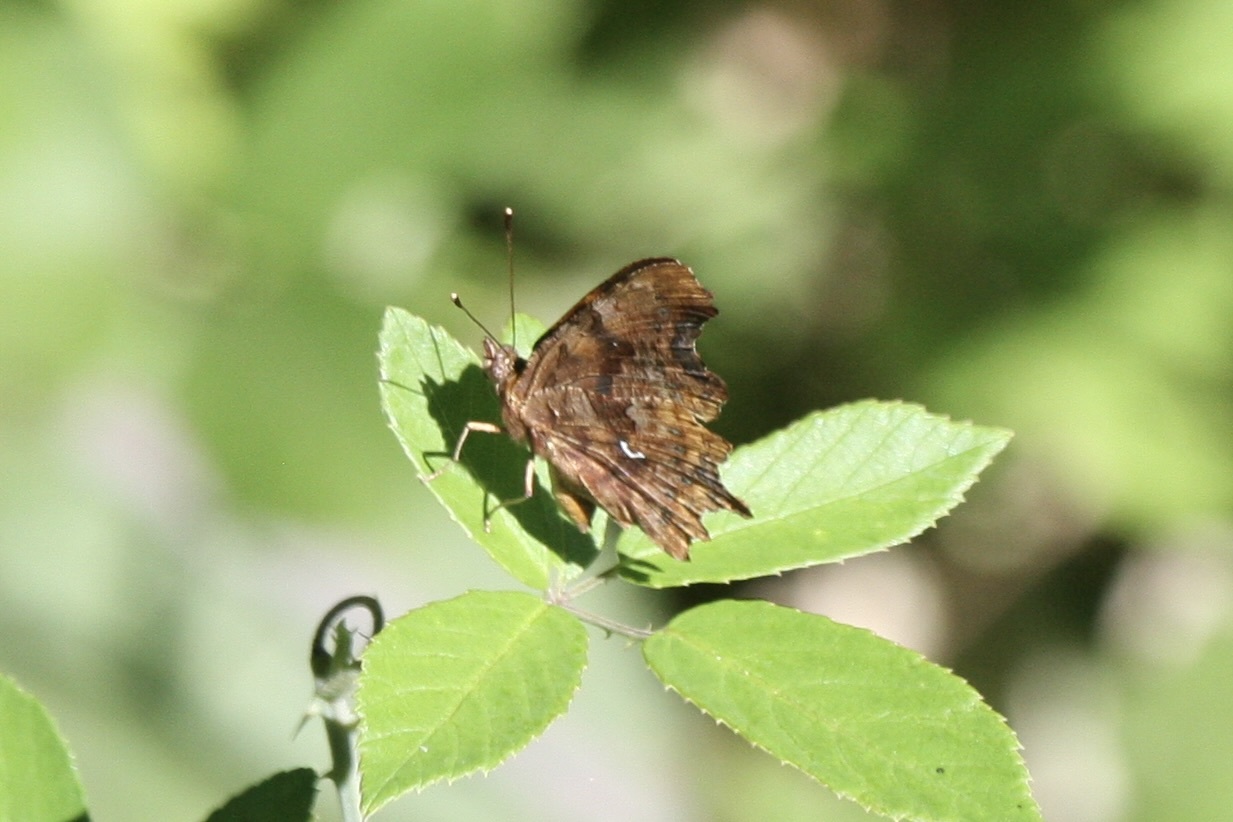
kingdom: Animalia
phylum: Arthropoda
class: Insecta
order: Lepidoptera
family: Nymphalidae
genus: Polygonia
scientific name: Polygonia c-album
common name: Comma
